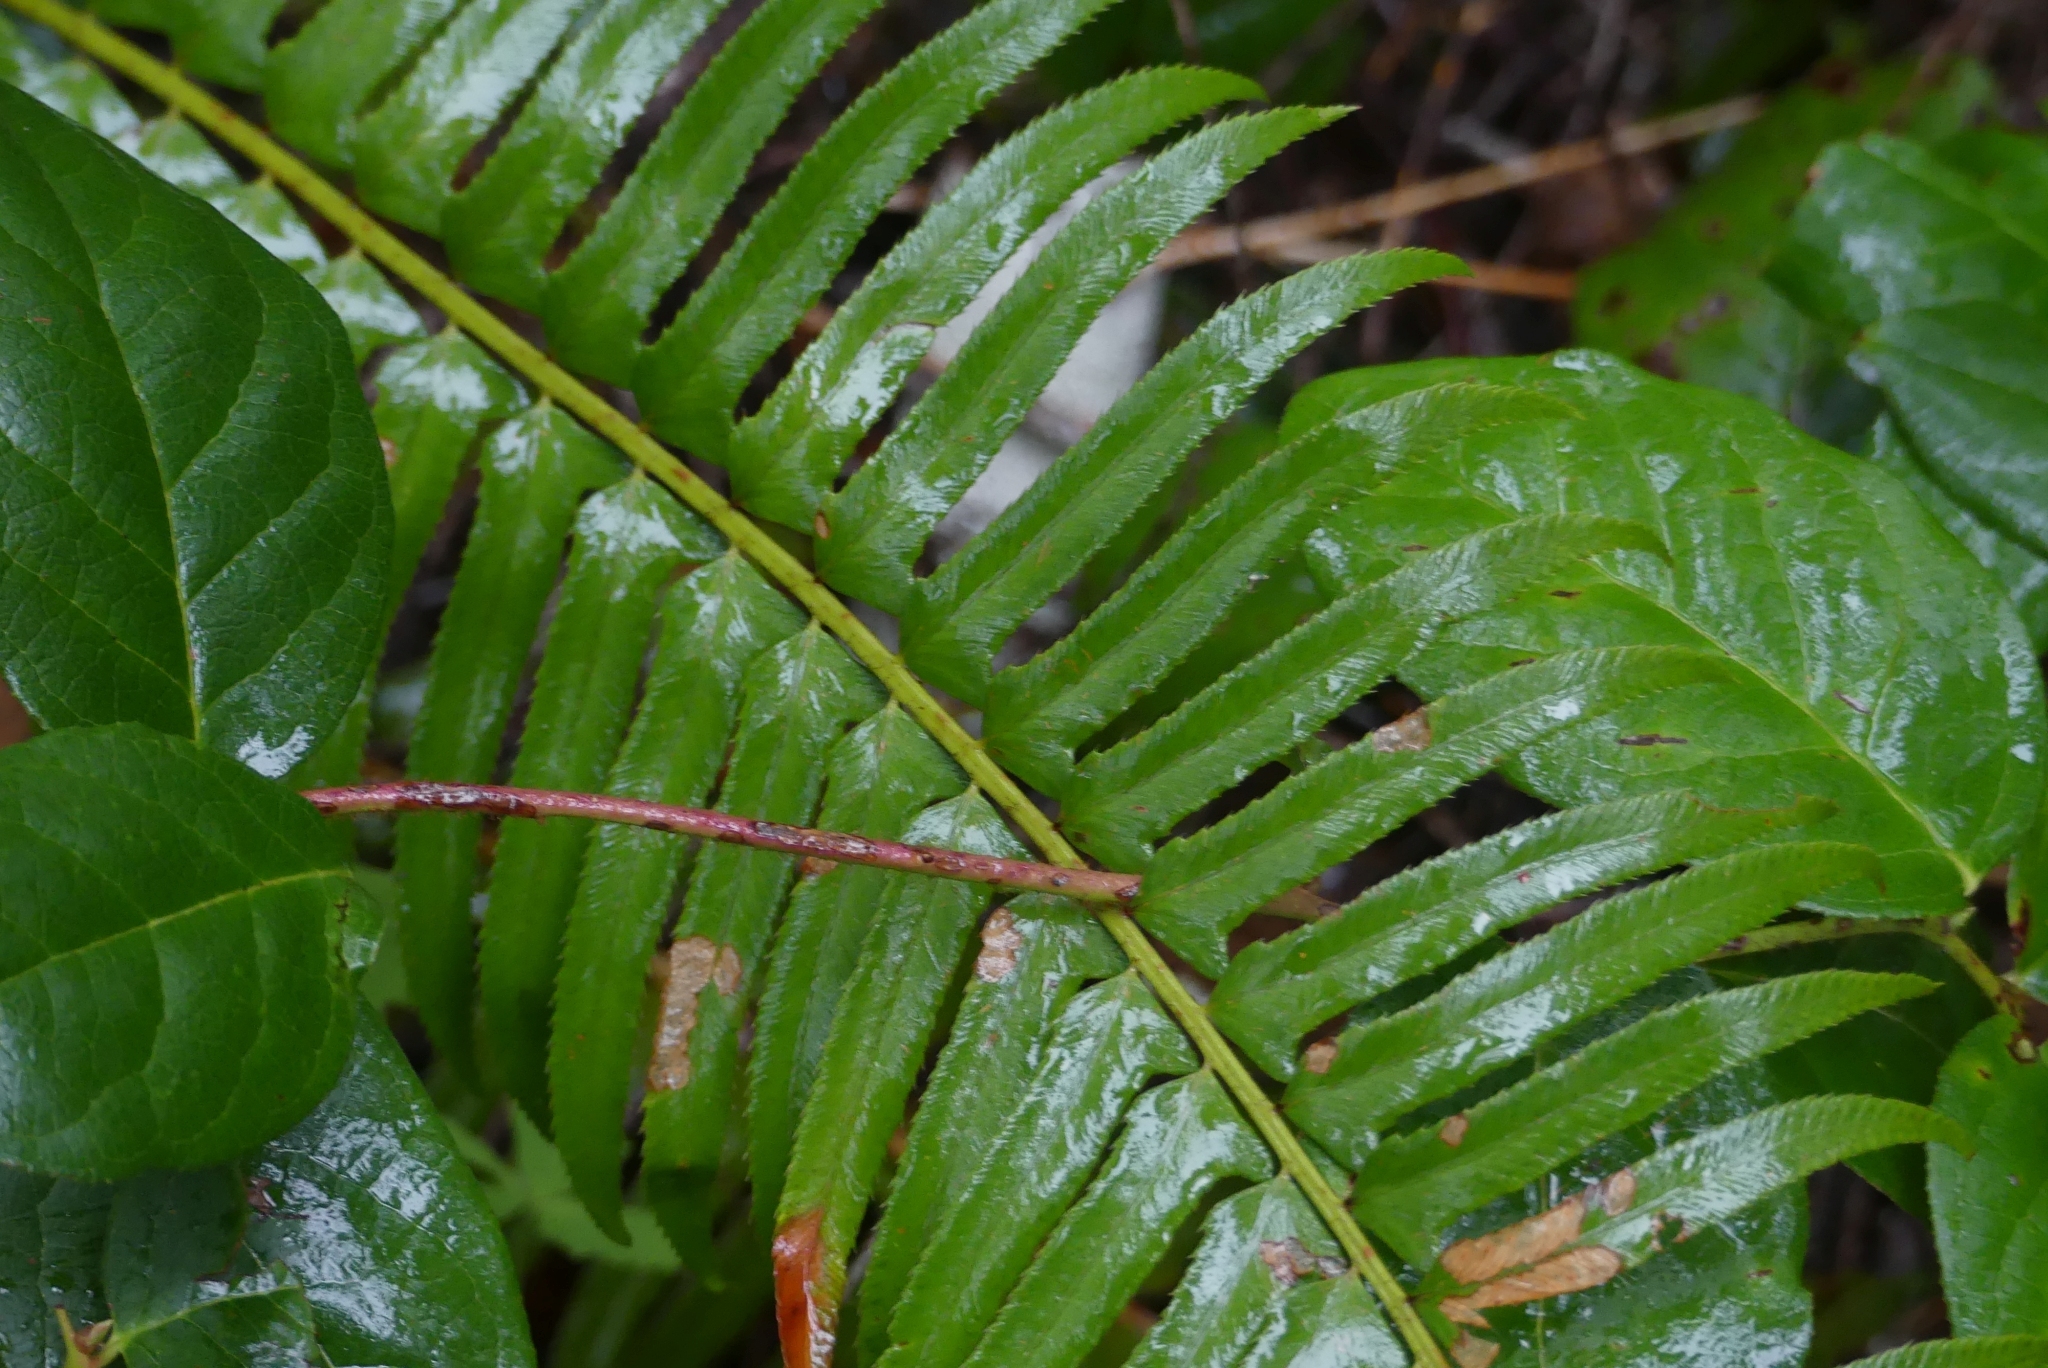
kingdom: Plantae
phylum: Tracheophyta
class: Polypodiopsida
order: Polypodiales
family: Dryopteridaceae
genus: Polystichum
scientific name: Polystichum munitum
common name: Western sword-fern
